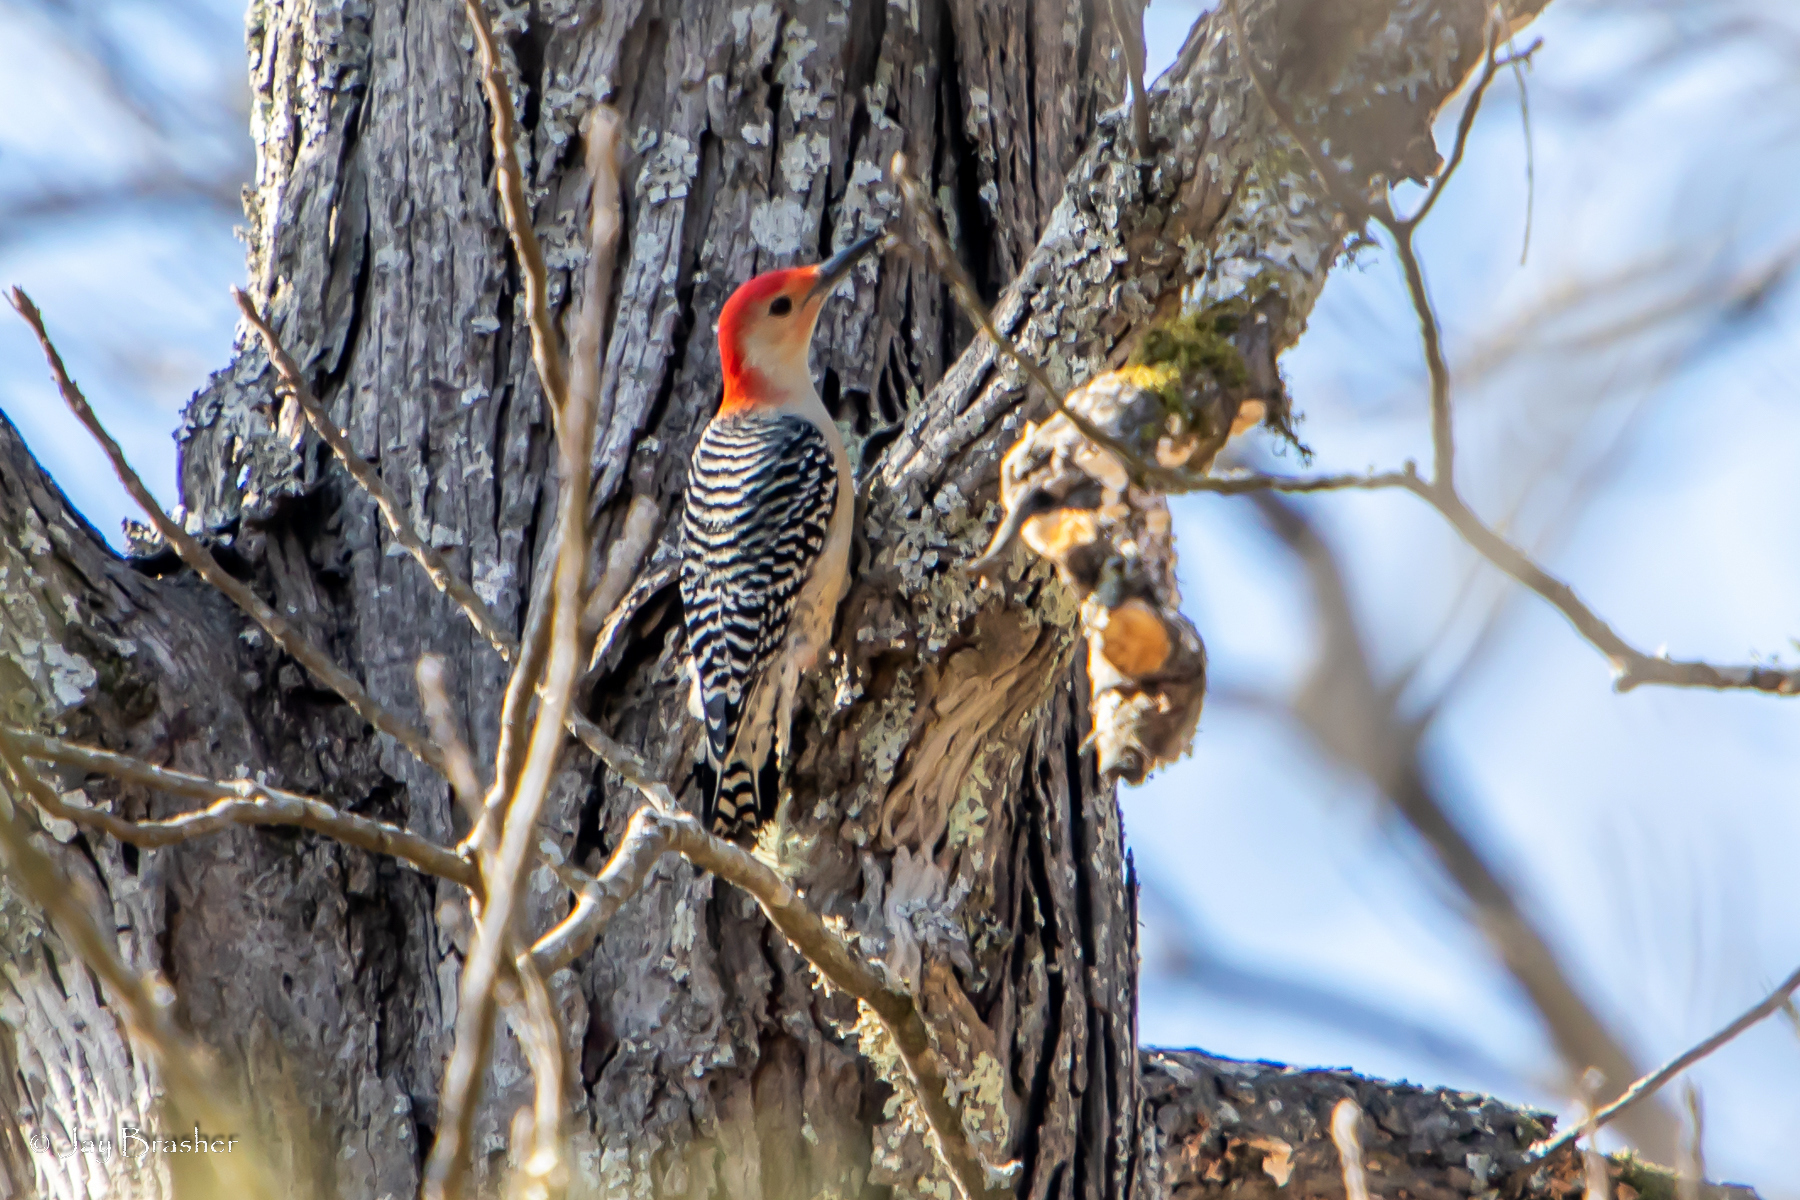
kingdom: Animalia
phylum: Chordata
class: Aves
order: Piciformes
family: Picidae
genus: Melanerpes
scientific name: Melanerpes carolinus
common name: Red-bellied woodpecker
